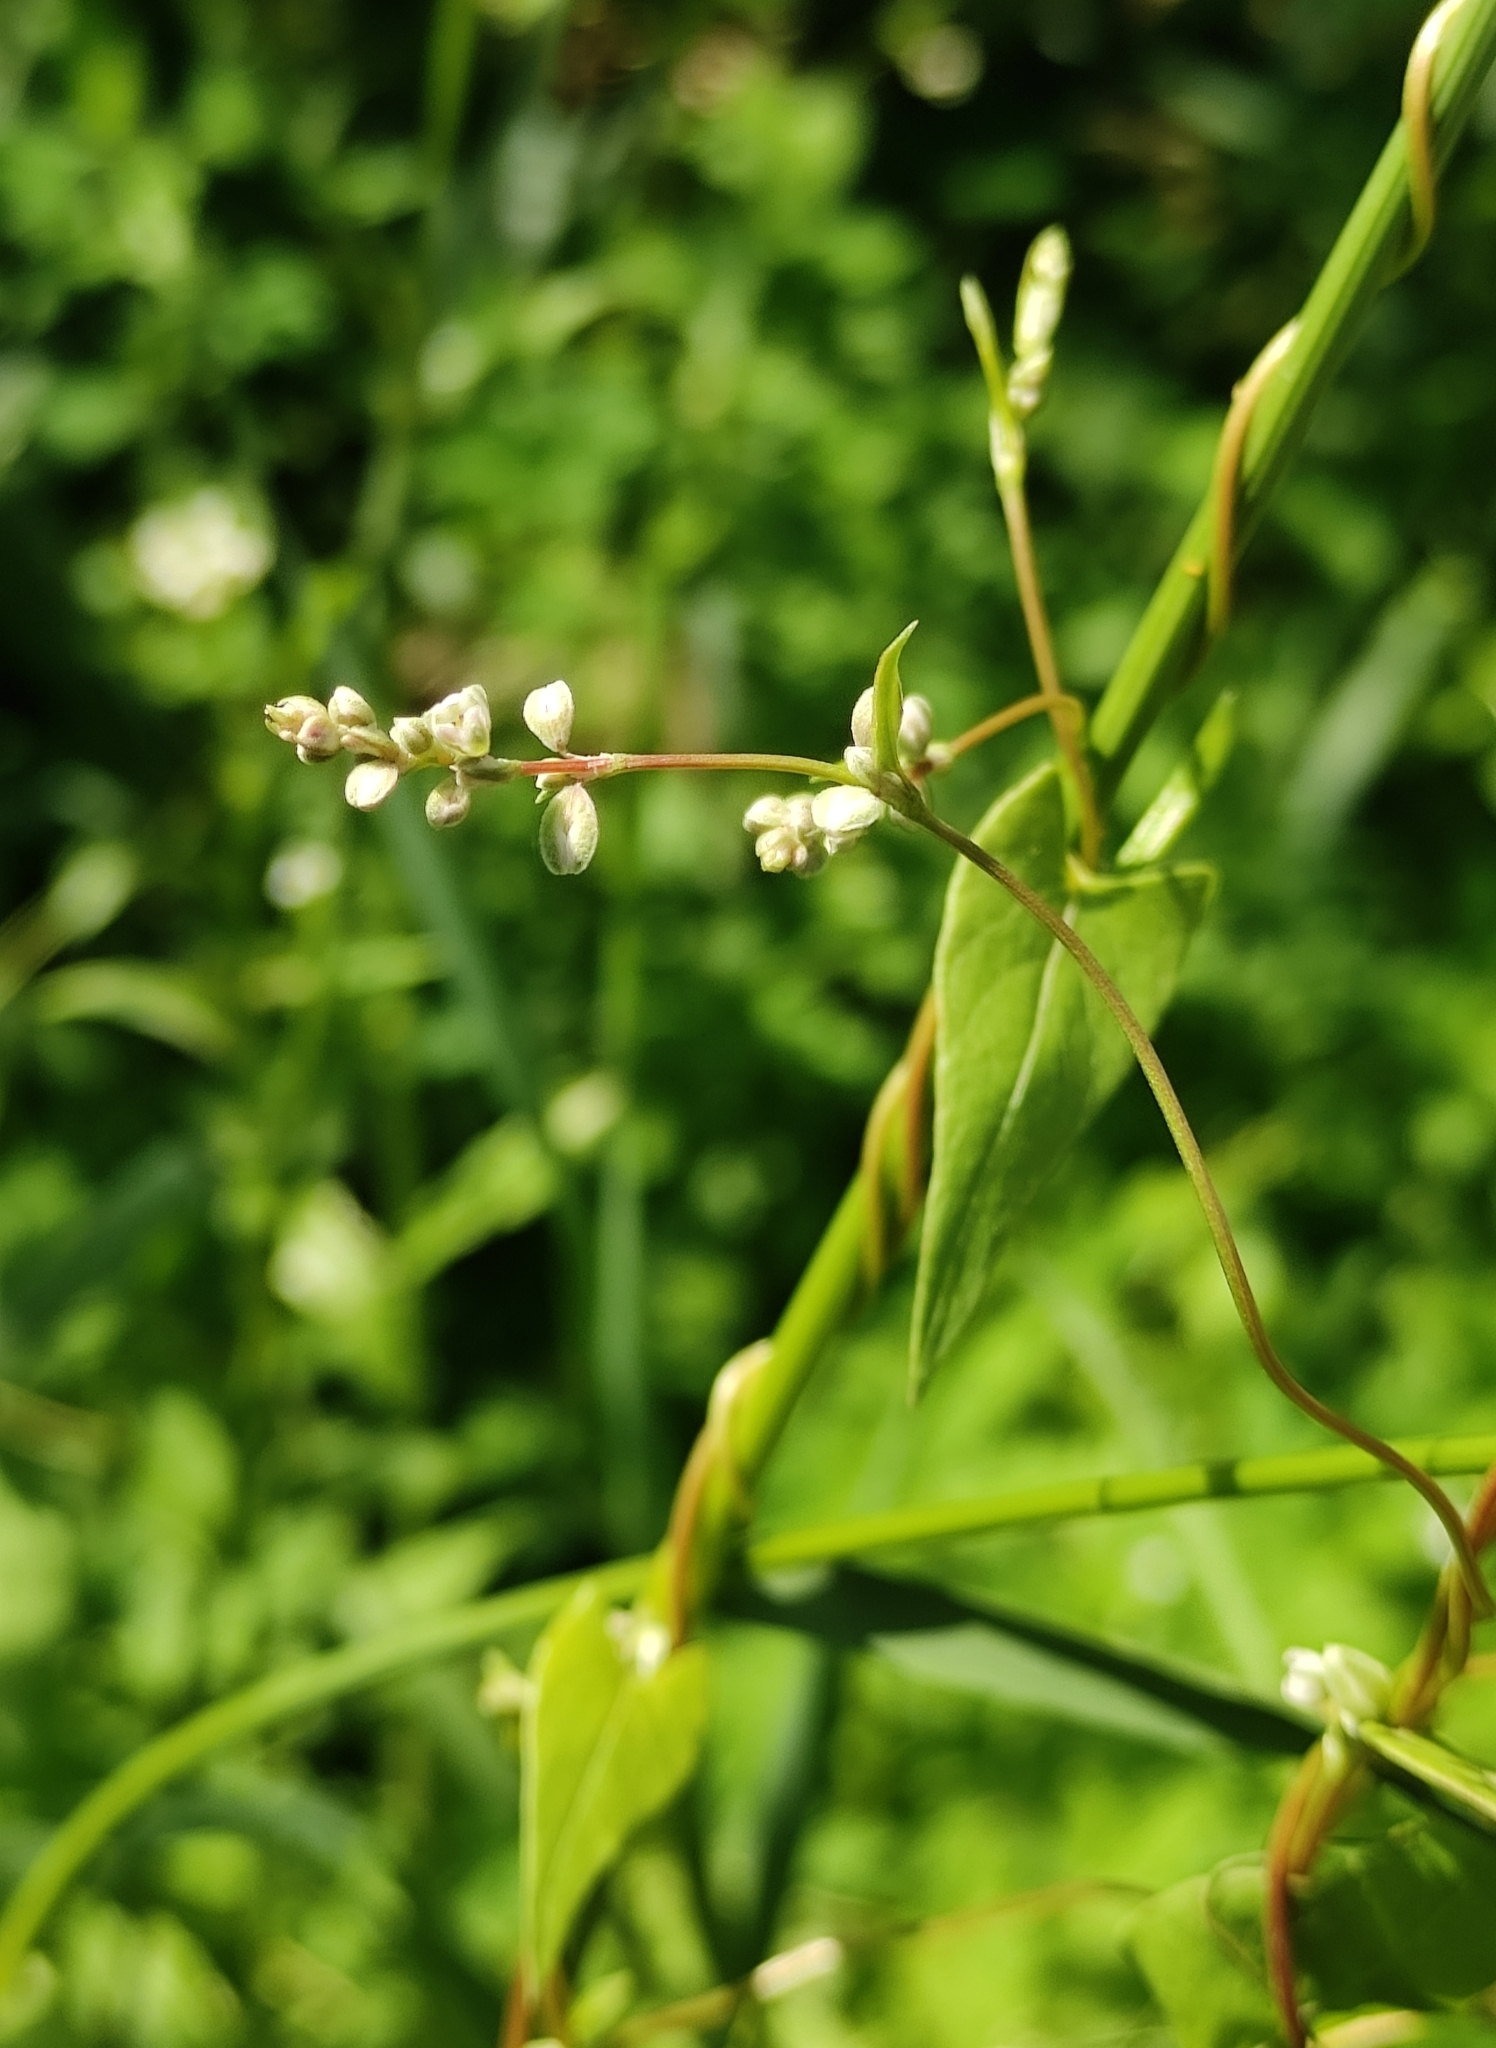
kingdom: Plantae
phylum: Tracheophyta
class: Magnoliopsida
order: Caryophyllales
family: Polygonaceae
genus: Fallopia
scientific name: Fallopia convolvulus
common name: Black bindweed
